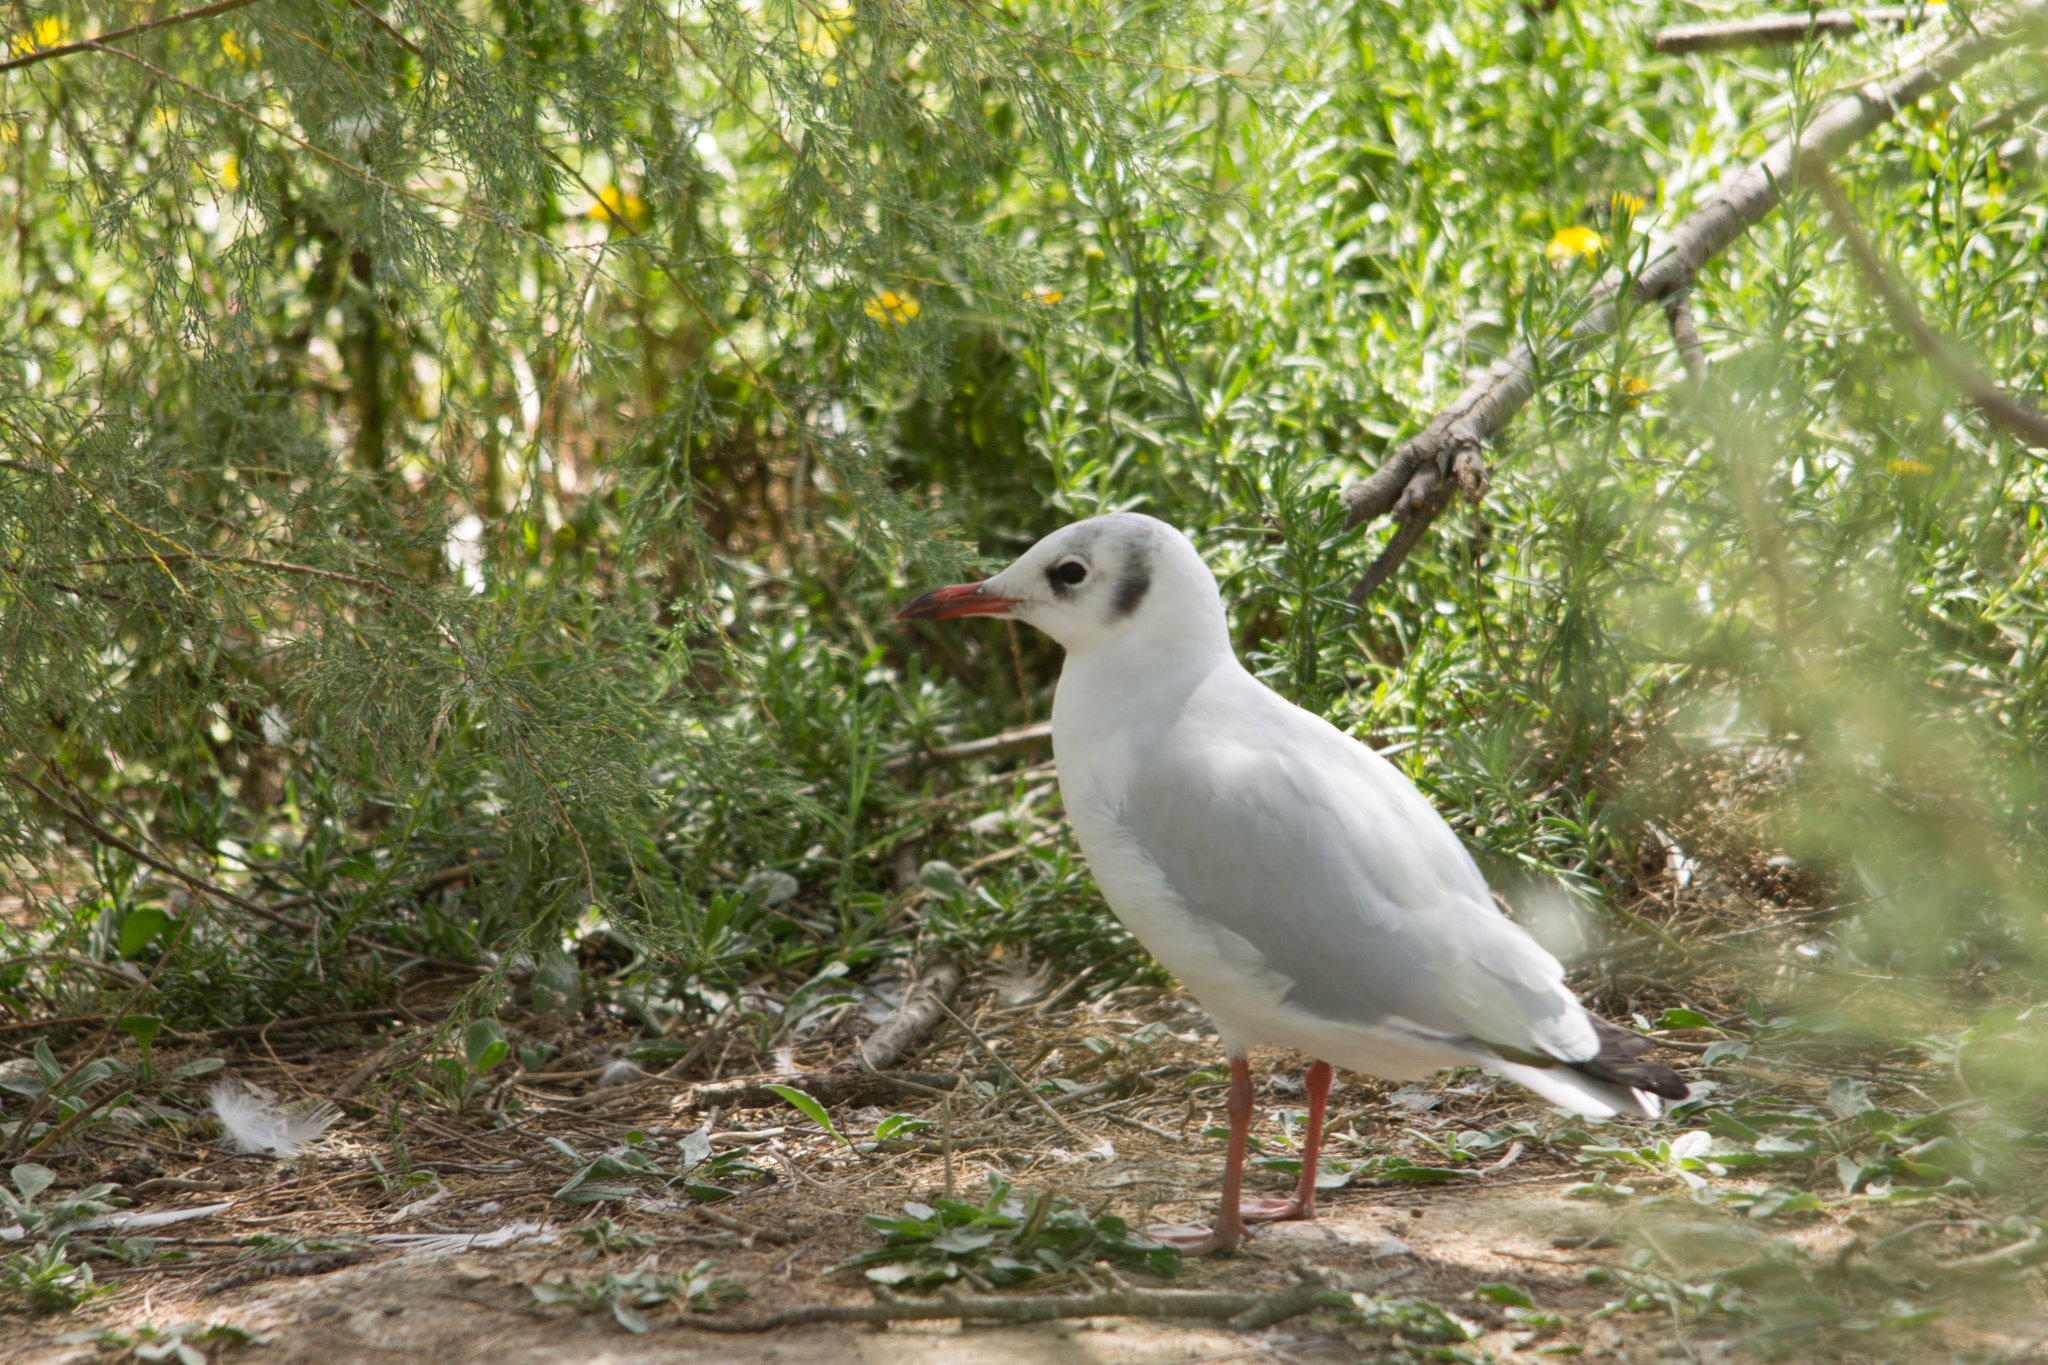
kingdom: Animalia
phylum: Chordata
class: Aves
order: Charadriiformes
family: Laridae
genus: Chroicocephalus
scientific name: Chroicocephalus ridibundus
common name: Black-headed gull
